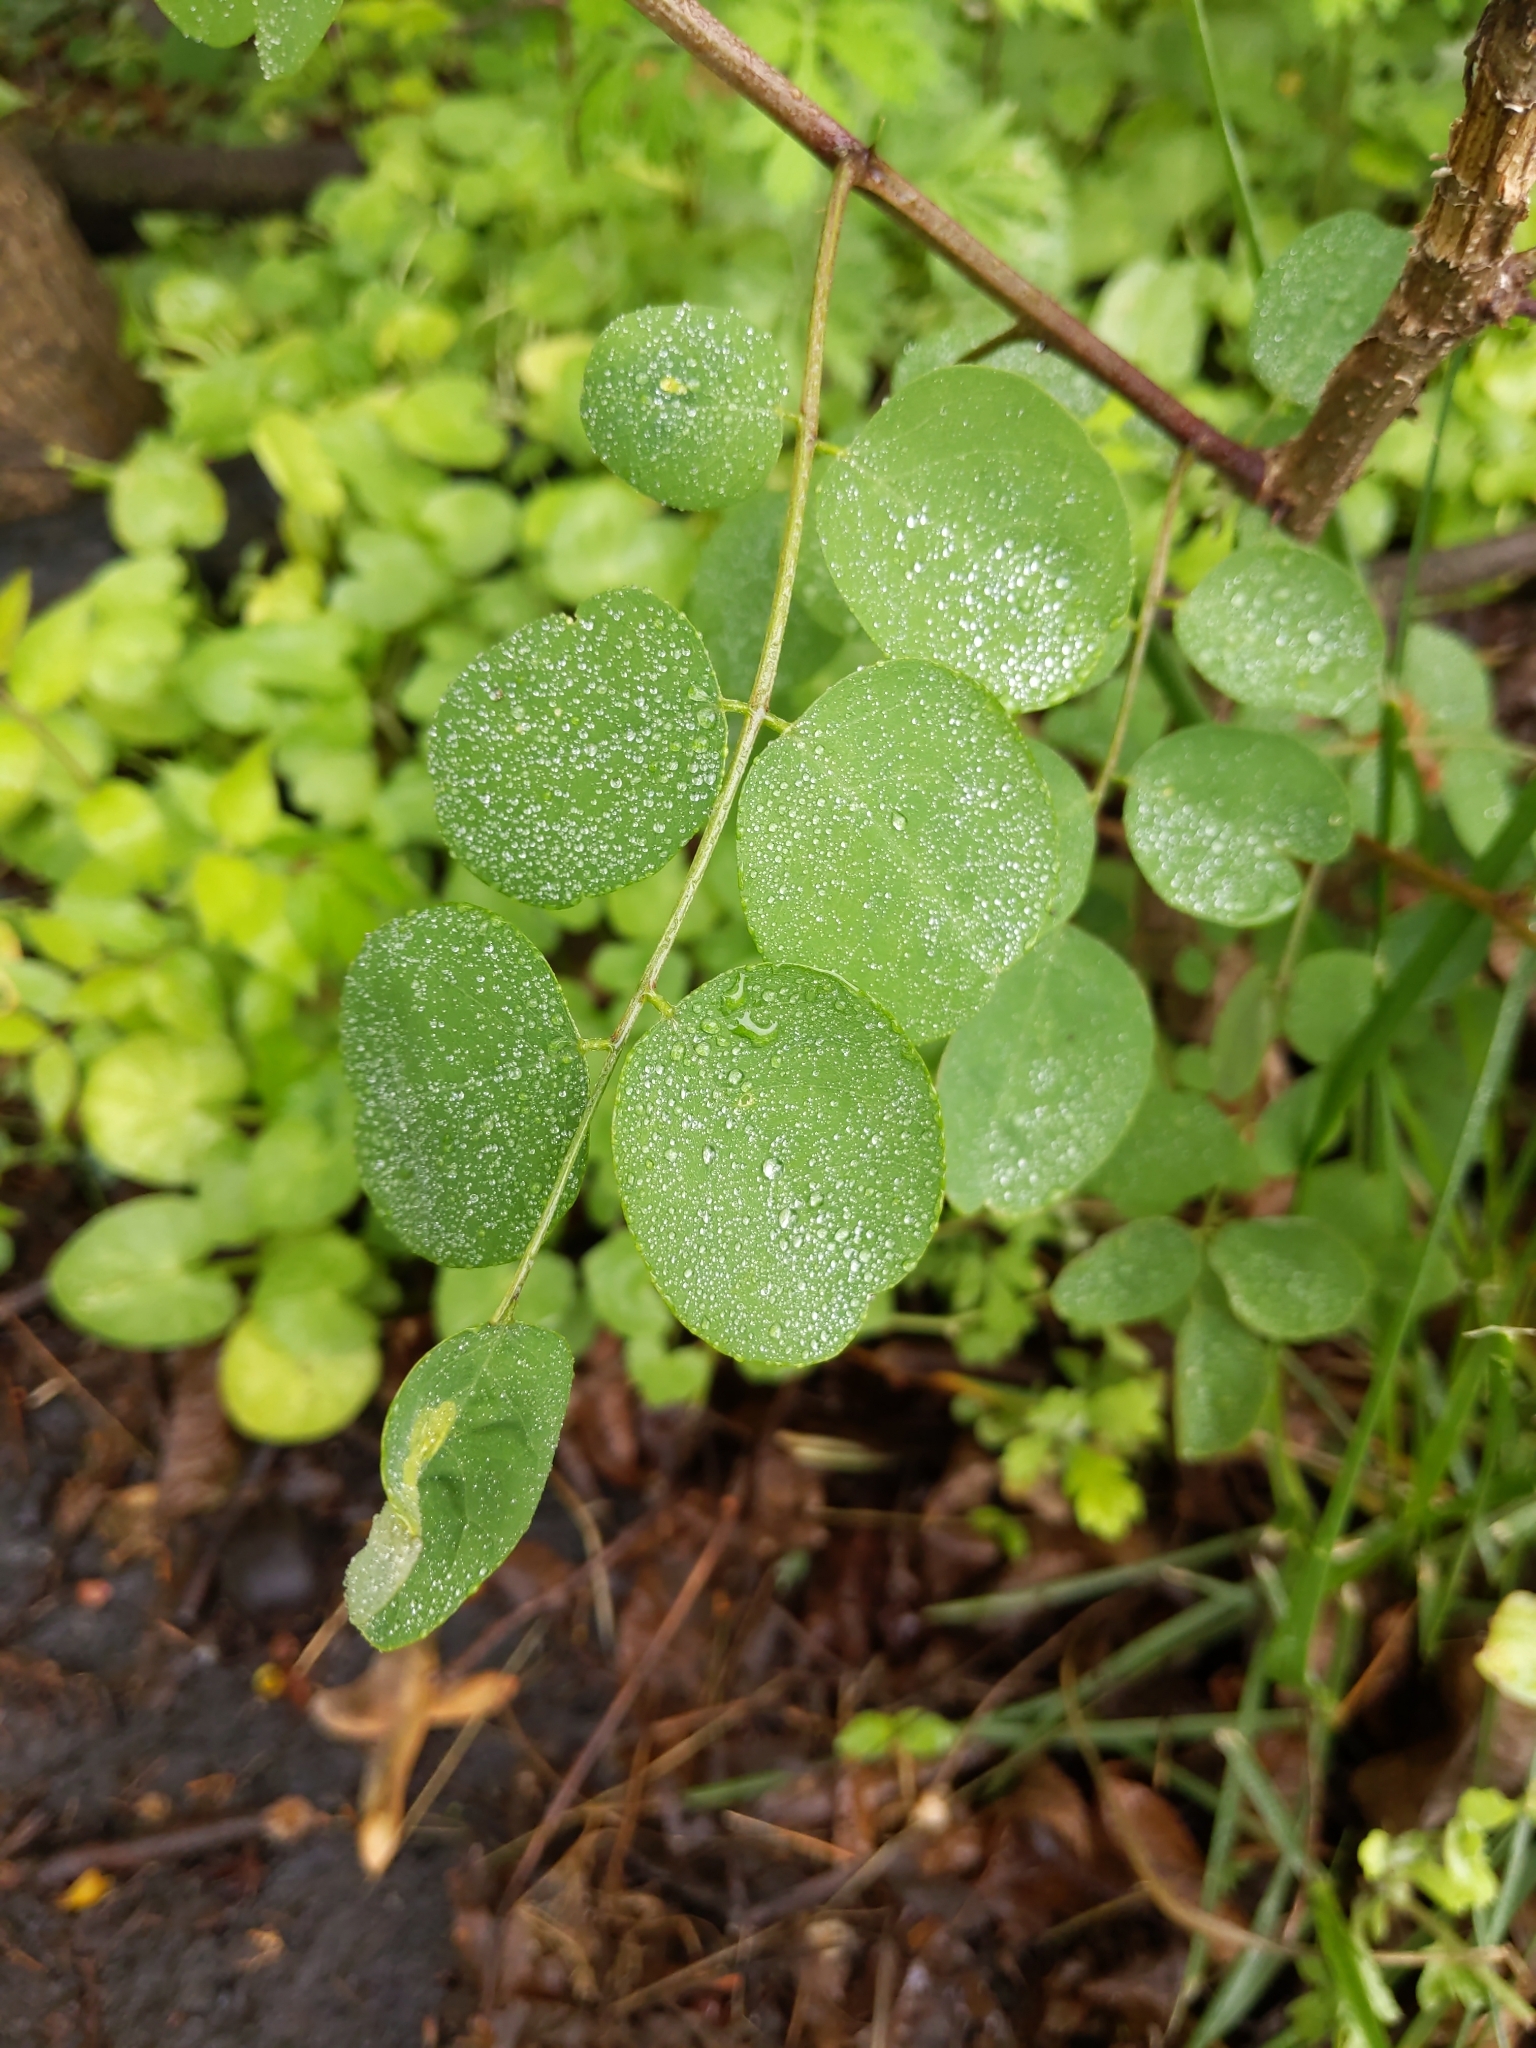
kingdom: Plantae
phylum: Tracheophyta
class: Magnoliopsida
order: Fabales
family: Fabaceae
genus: Robinia
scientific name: Robinia pseudoacacia
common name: Black locust
